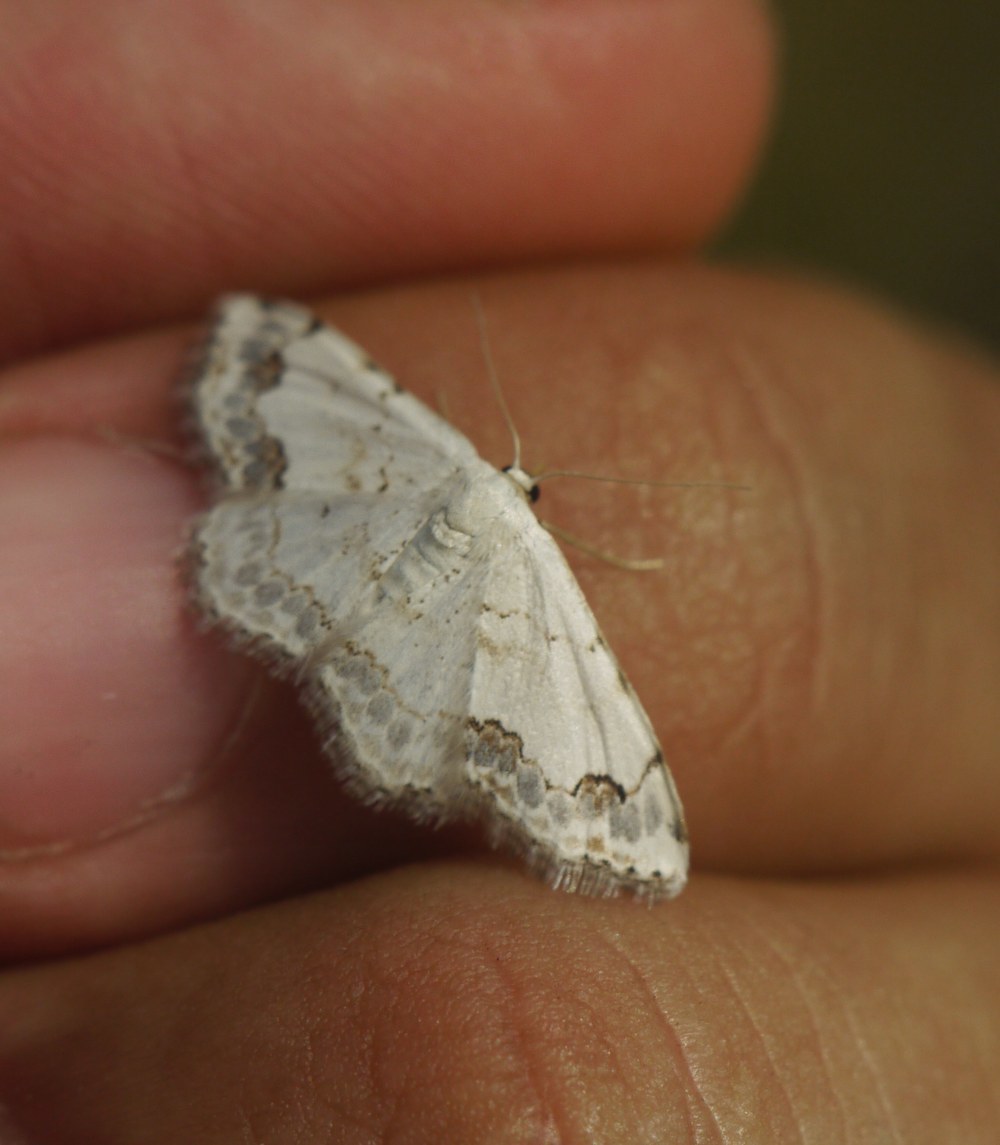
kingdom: Animalia
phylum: Arthropoda
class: Insecta
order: Lepidoptera
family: Geometridae
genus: Scopula
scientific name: Scopula decorata
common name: Middle lace border
